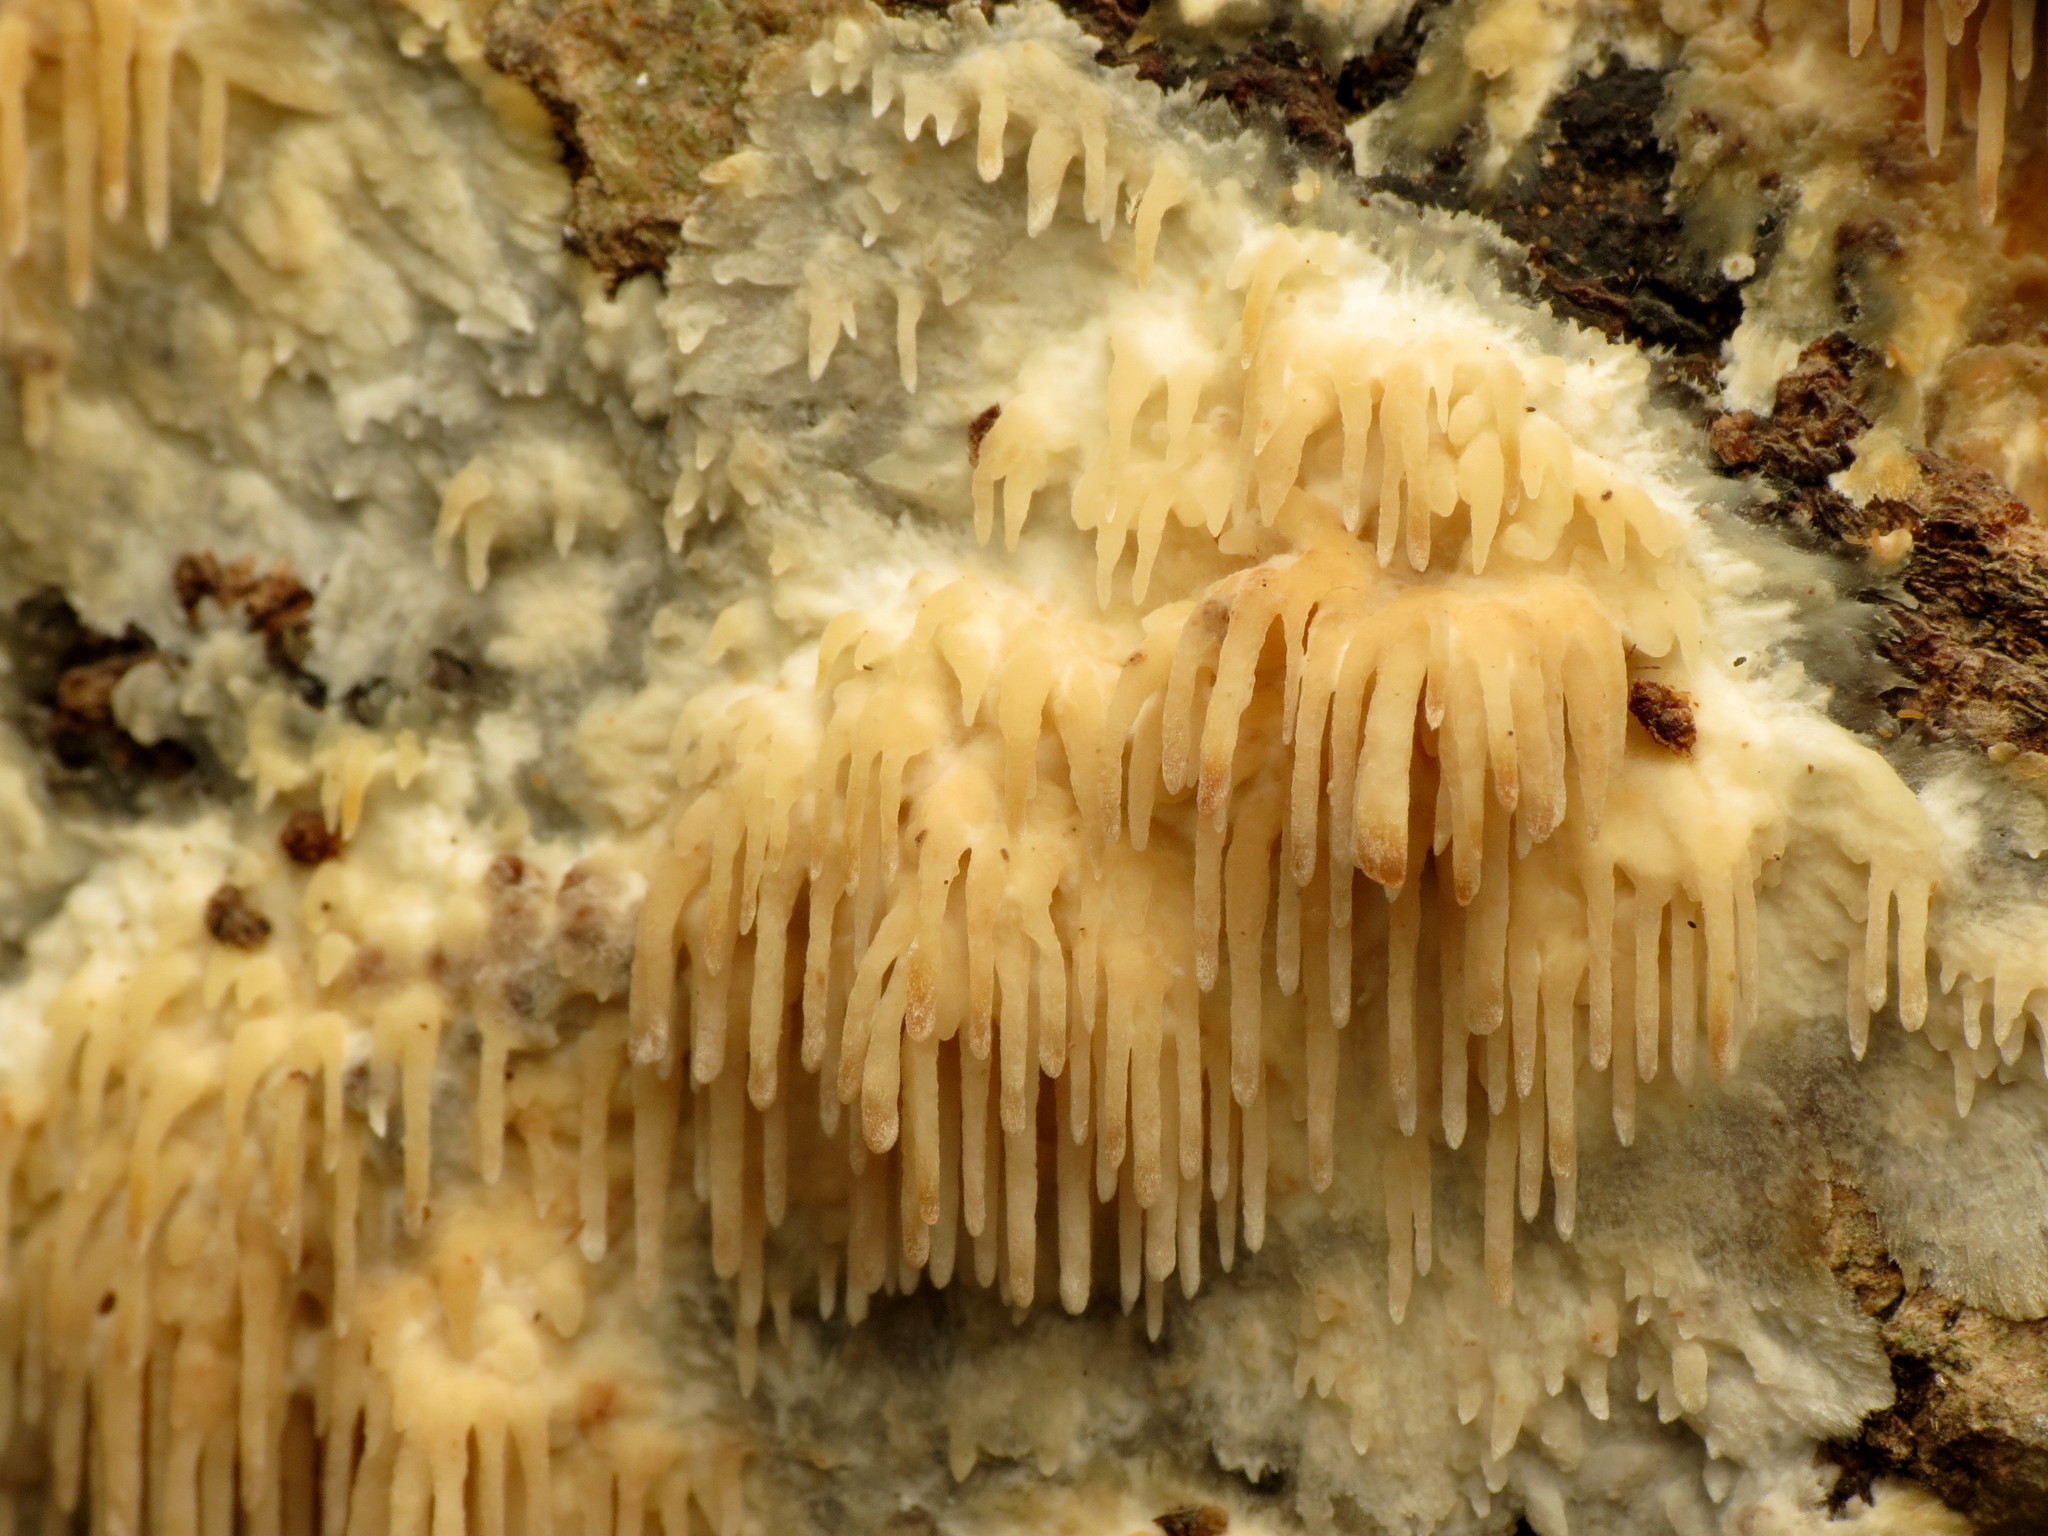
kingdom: Fungi
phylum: Basidiomycota
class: Agaricomycetes
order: Agaricales
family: Radulomycetaceae
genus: Radulomyces
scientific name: Radulomyces copelandii
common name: Asian beauty
